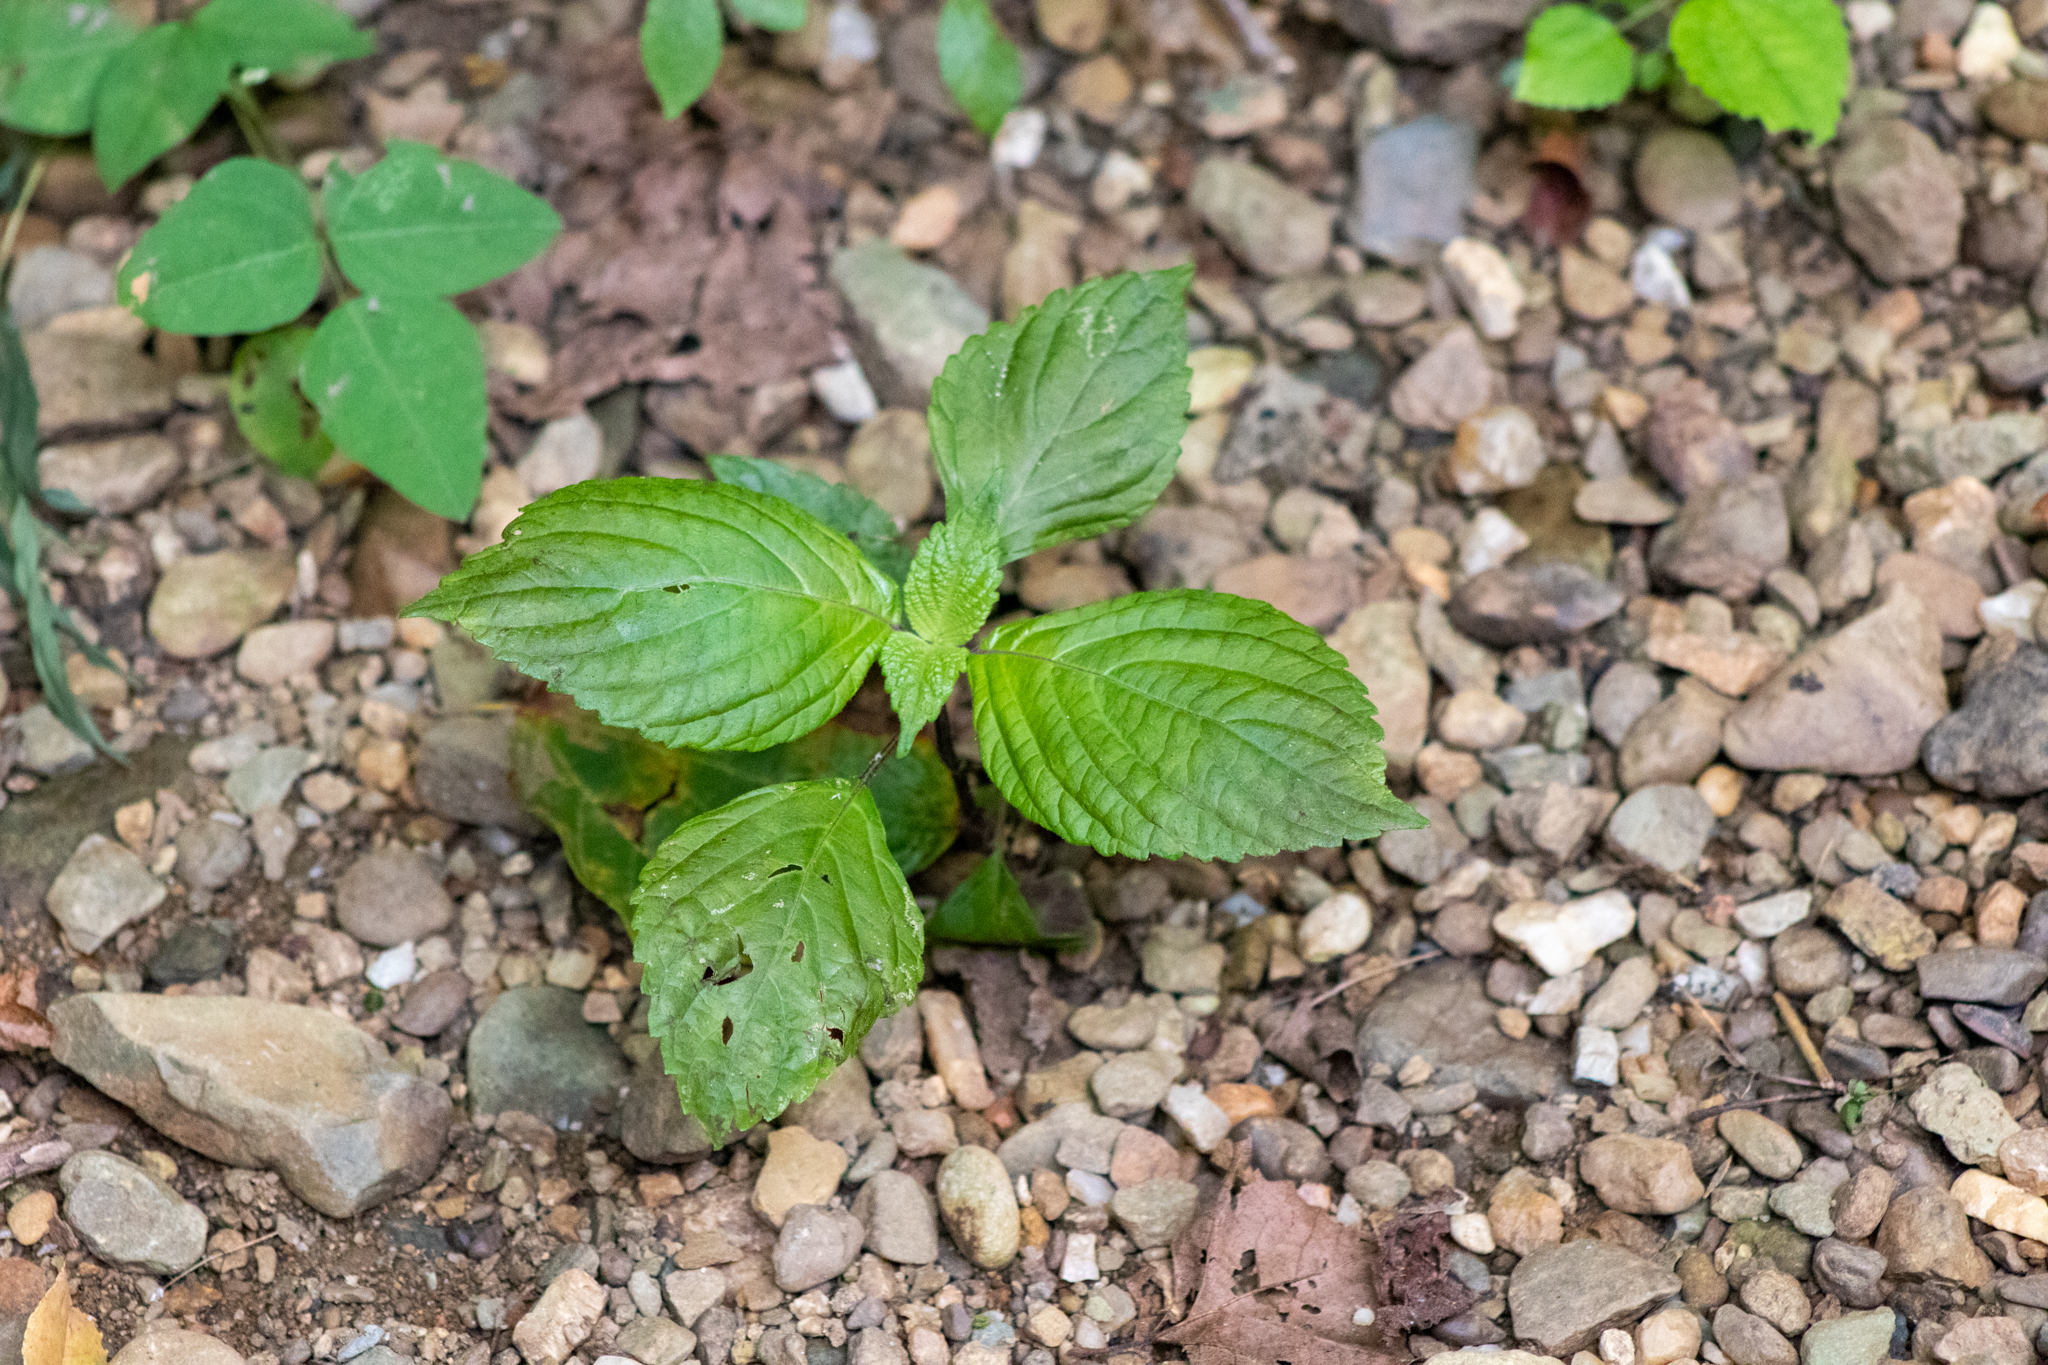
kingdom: Plantae
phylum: Tracheophyta
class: Magnoliopsida
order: Lamiales
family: Lamiaceae
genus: Perilla
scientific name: Perilla frutescens
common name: Perilla
